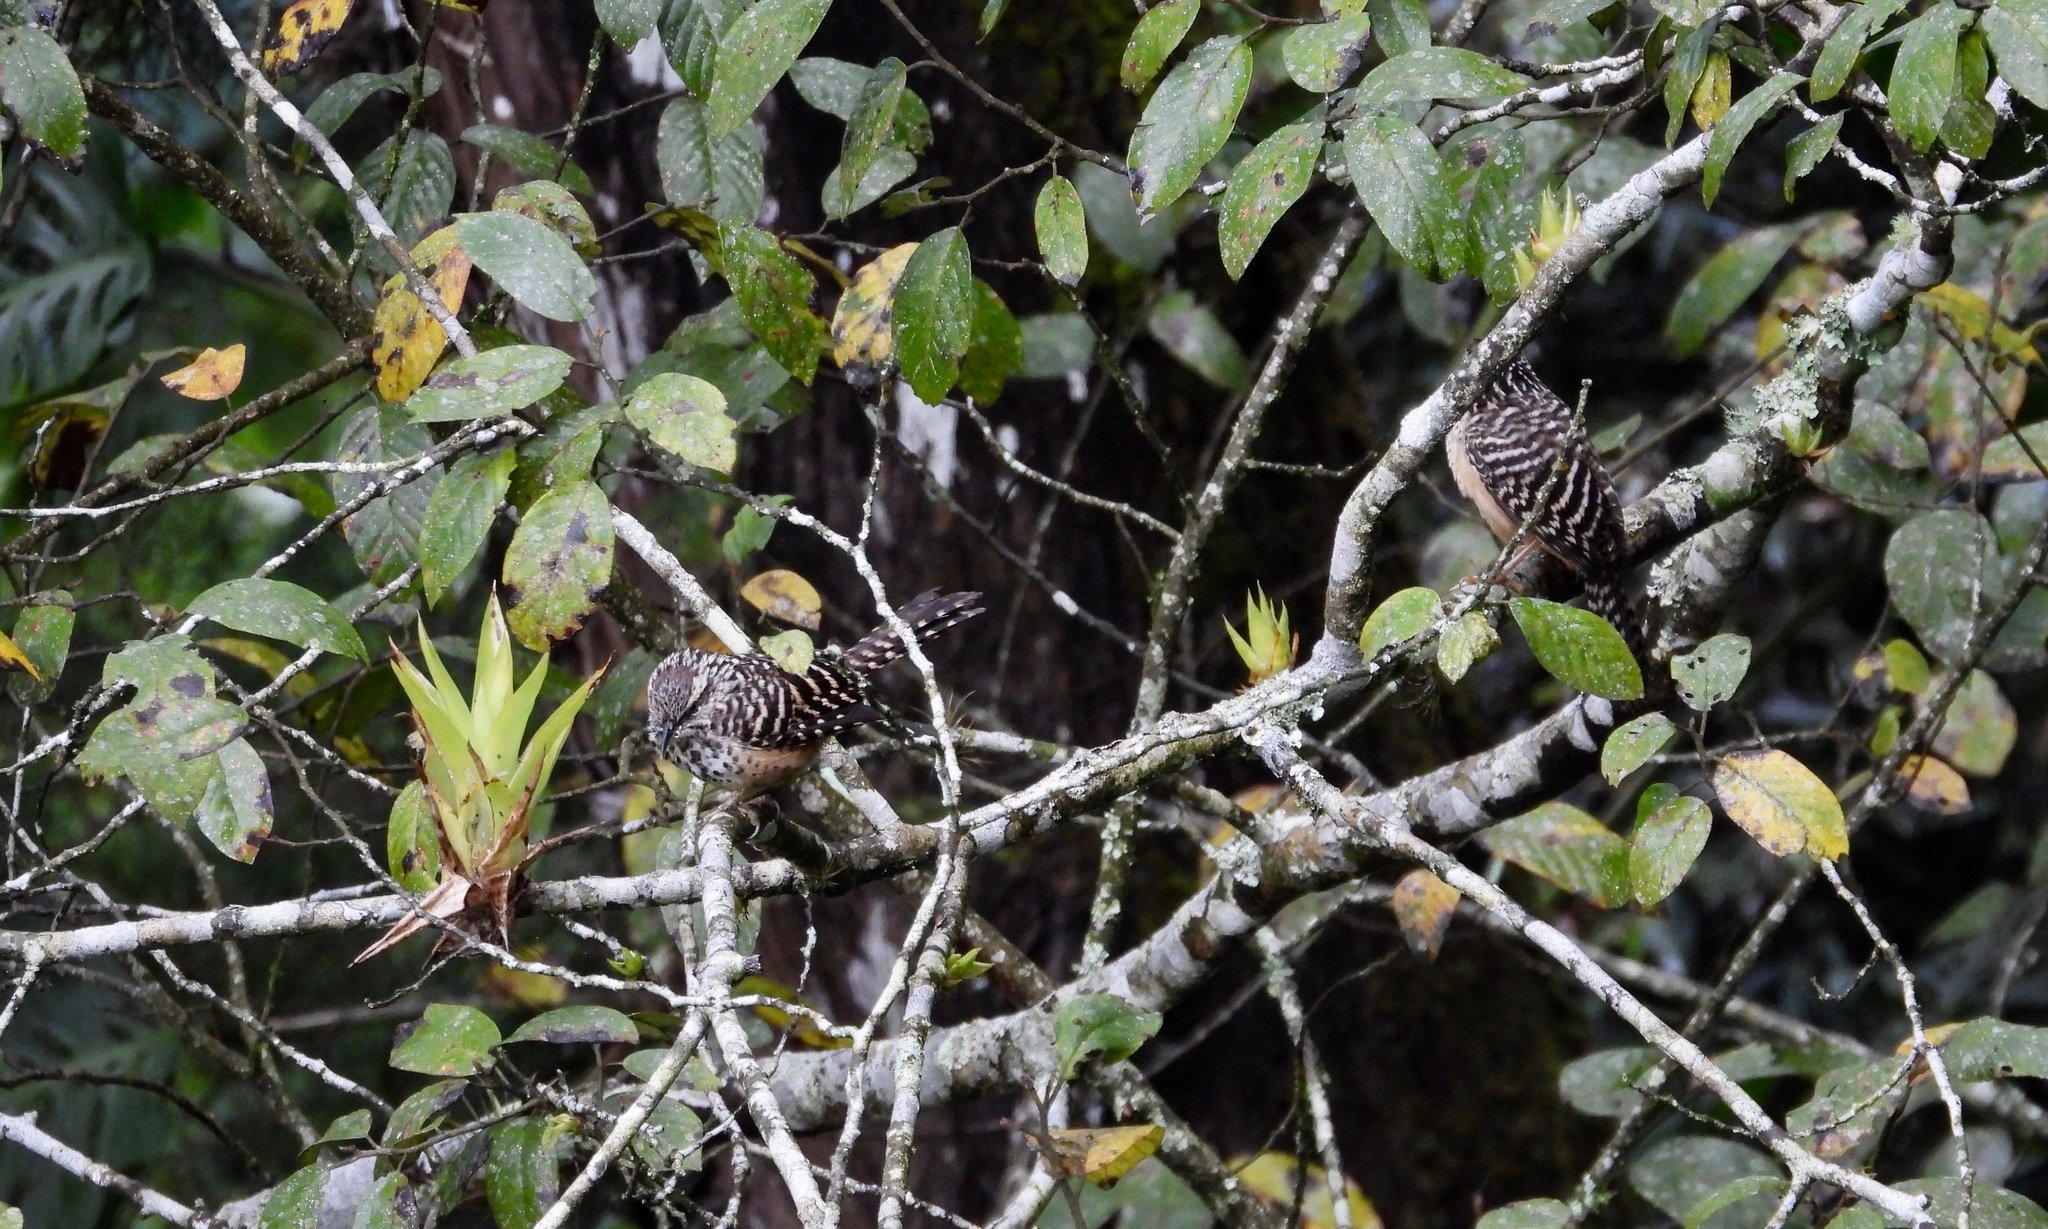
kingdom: Animalia
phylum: Chordata
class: Aves
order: Passeriformes
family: Troglodytidae
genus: Campylorhynchus
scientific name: Campylorhynchus zonatus
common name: Band-backed wren
